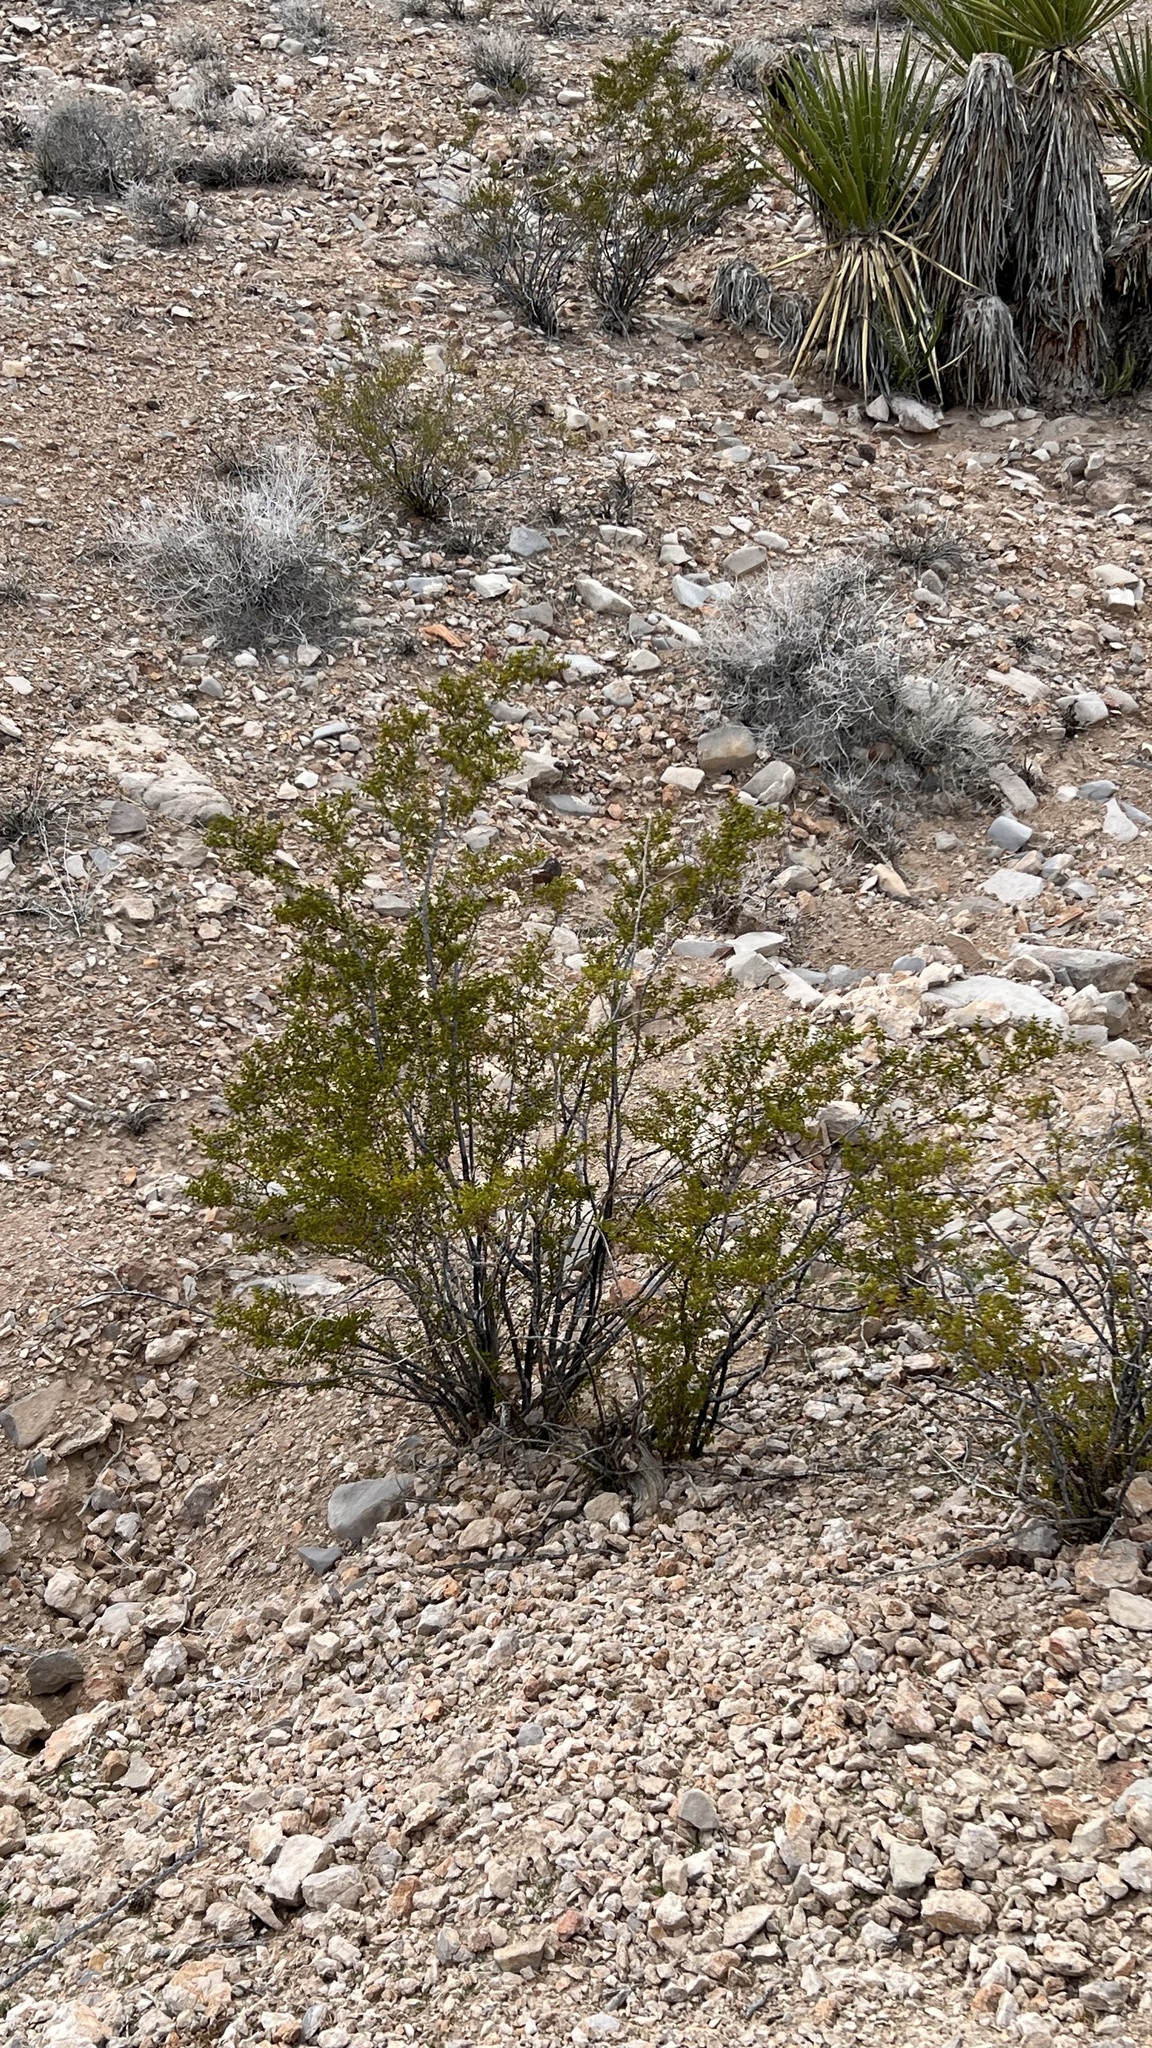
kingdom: Plantae
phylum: Tracheophyta
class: Magnoliopsida
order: Zygophyllales
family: Zygophyllaceae
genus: Larrea
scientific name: Larrea tridentata
